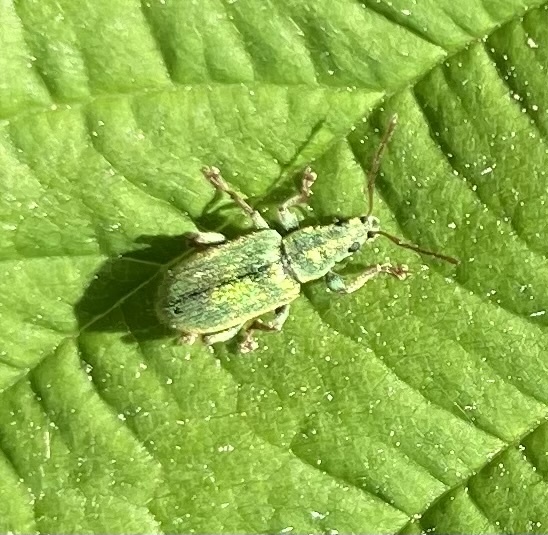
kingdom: Animalia
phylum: Arthropoda
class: Insecta
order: Coleoptera
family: Curculionidae
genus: Phyllobius
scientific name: Phyllobius argentatus
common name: Silver-green leaf weevil
